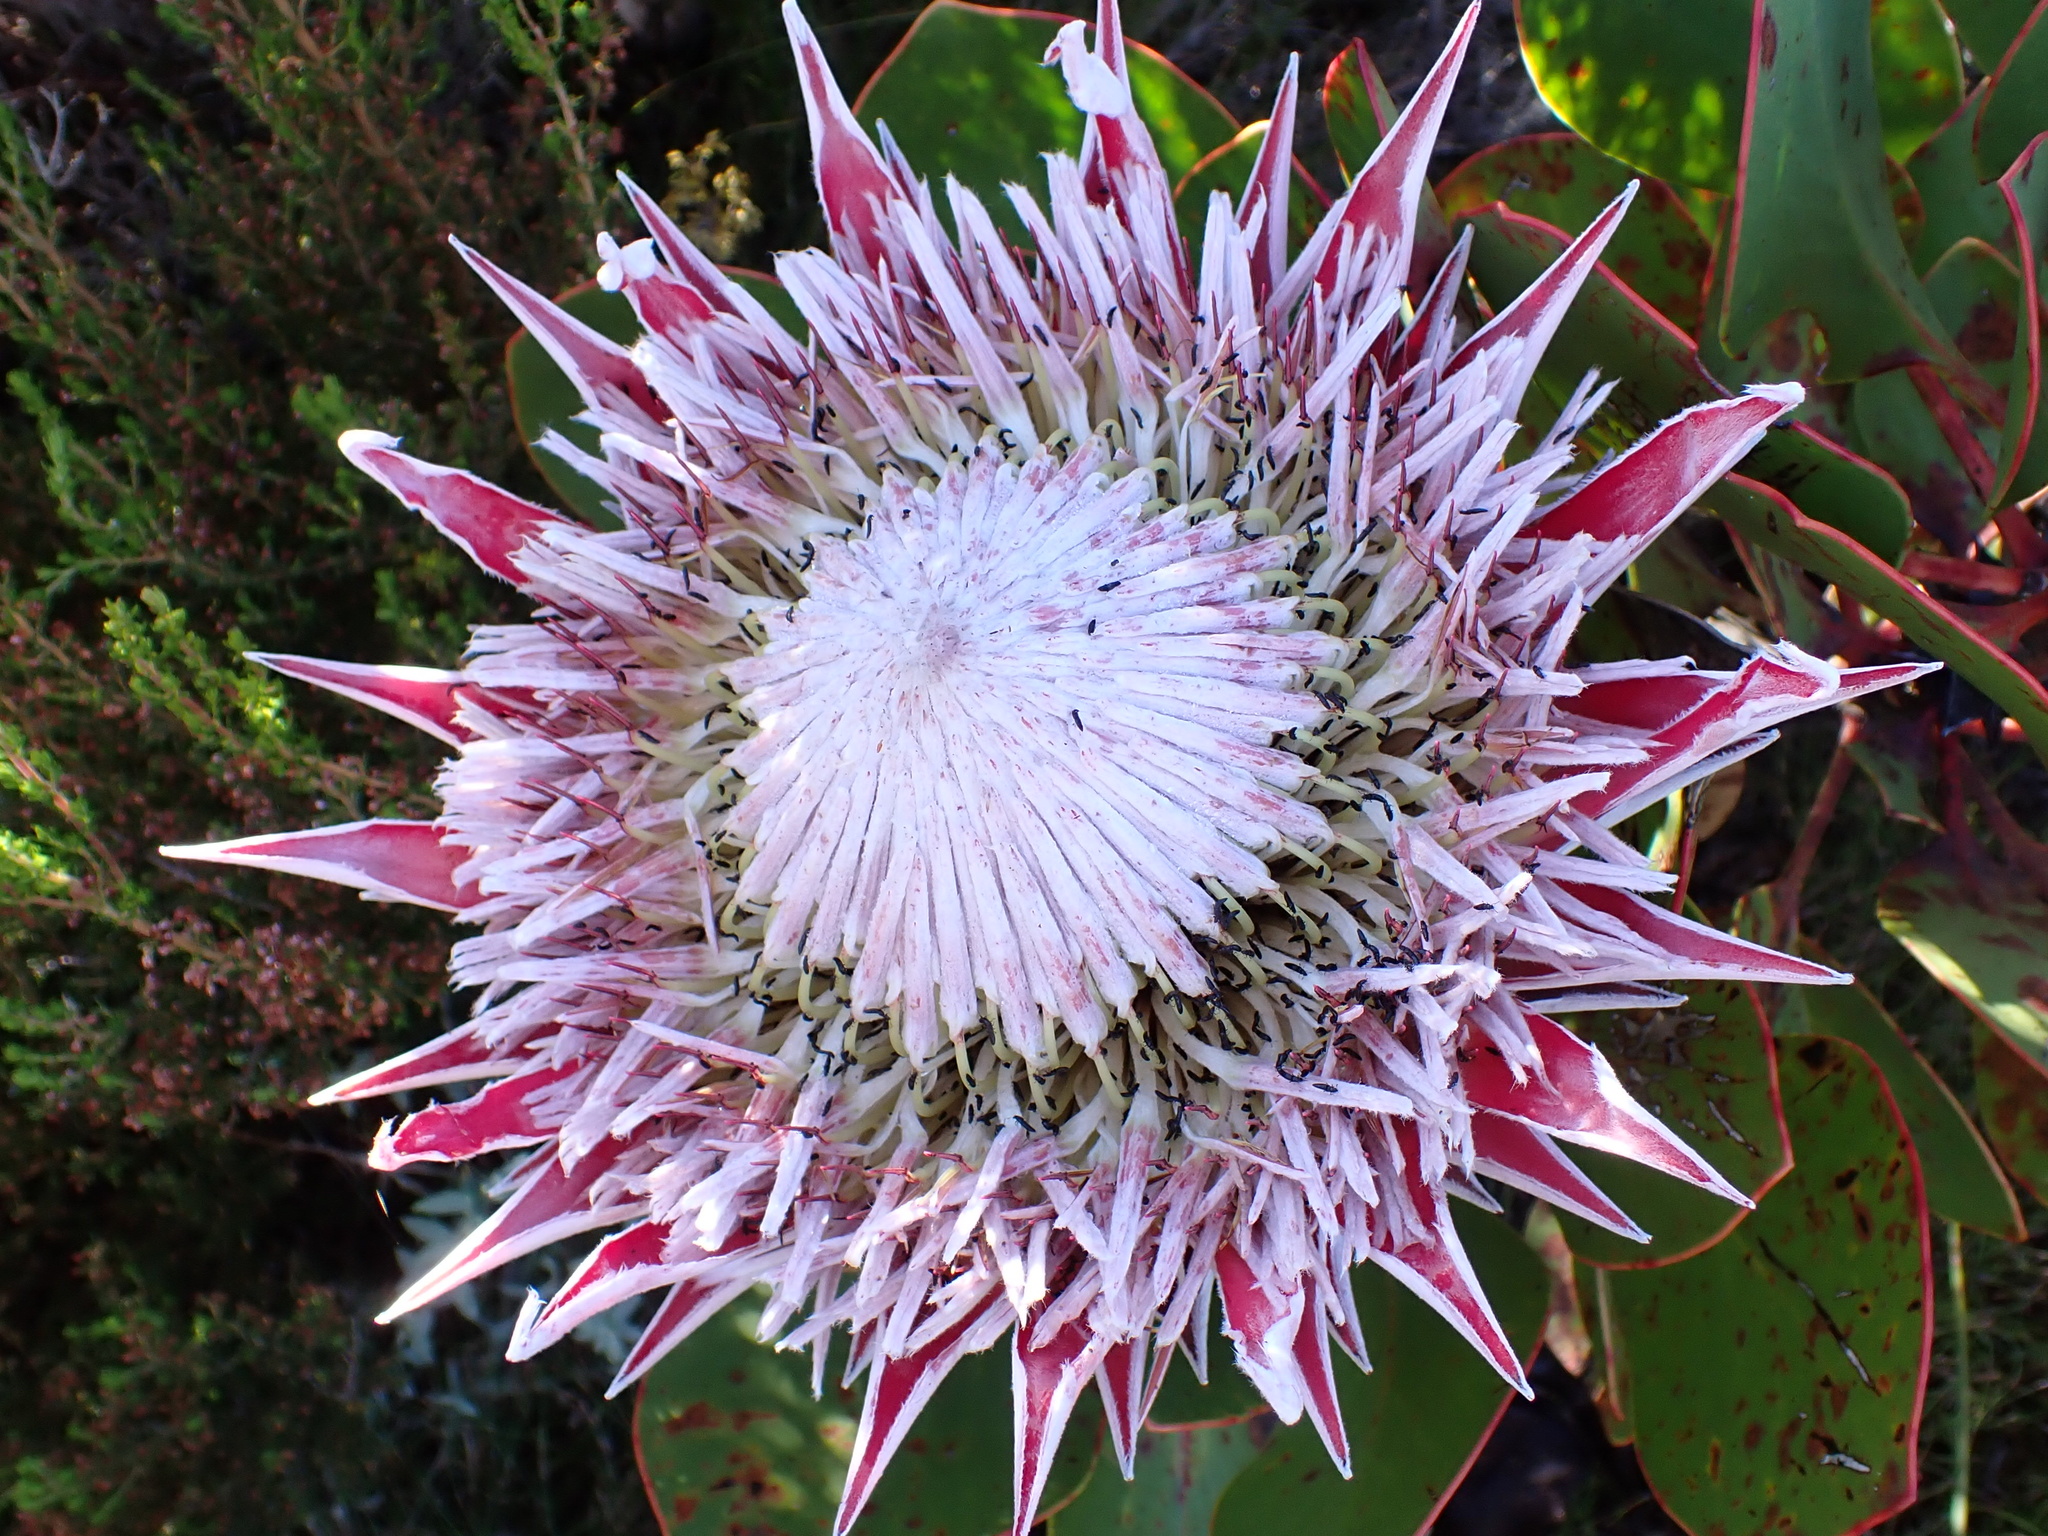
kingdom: Plantae
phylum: Tracheophyta
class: Magnoliopsida
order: Proteales
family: Proteaceae
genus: Protea
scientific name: Protea cynaroides
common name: King protea
